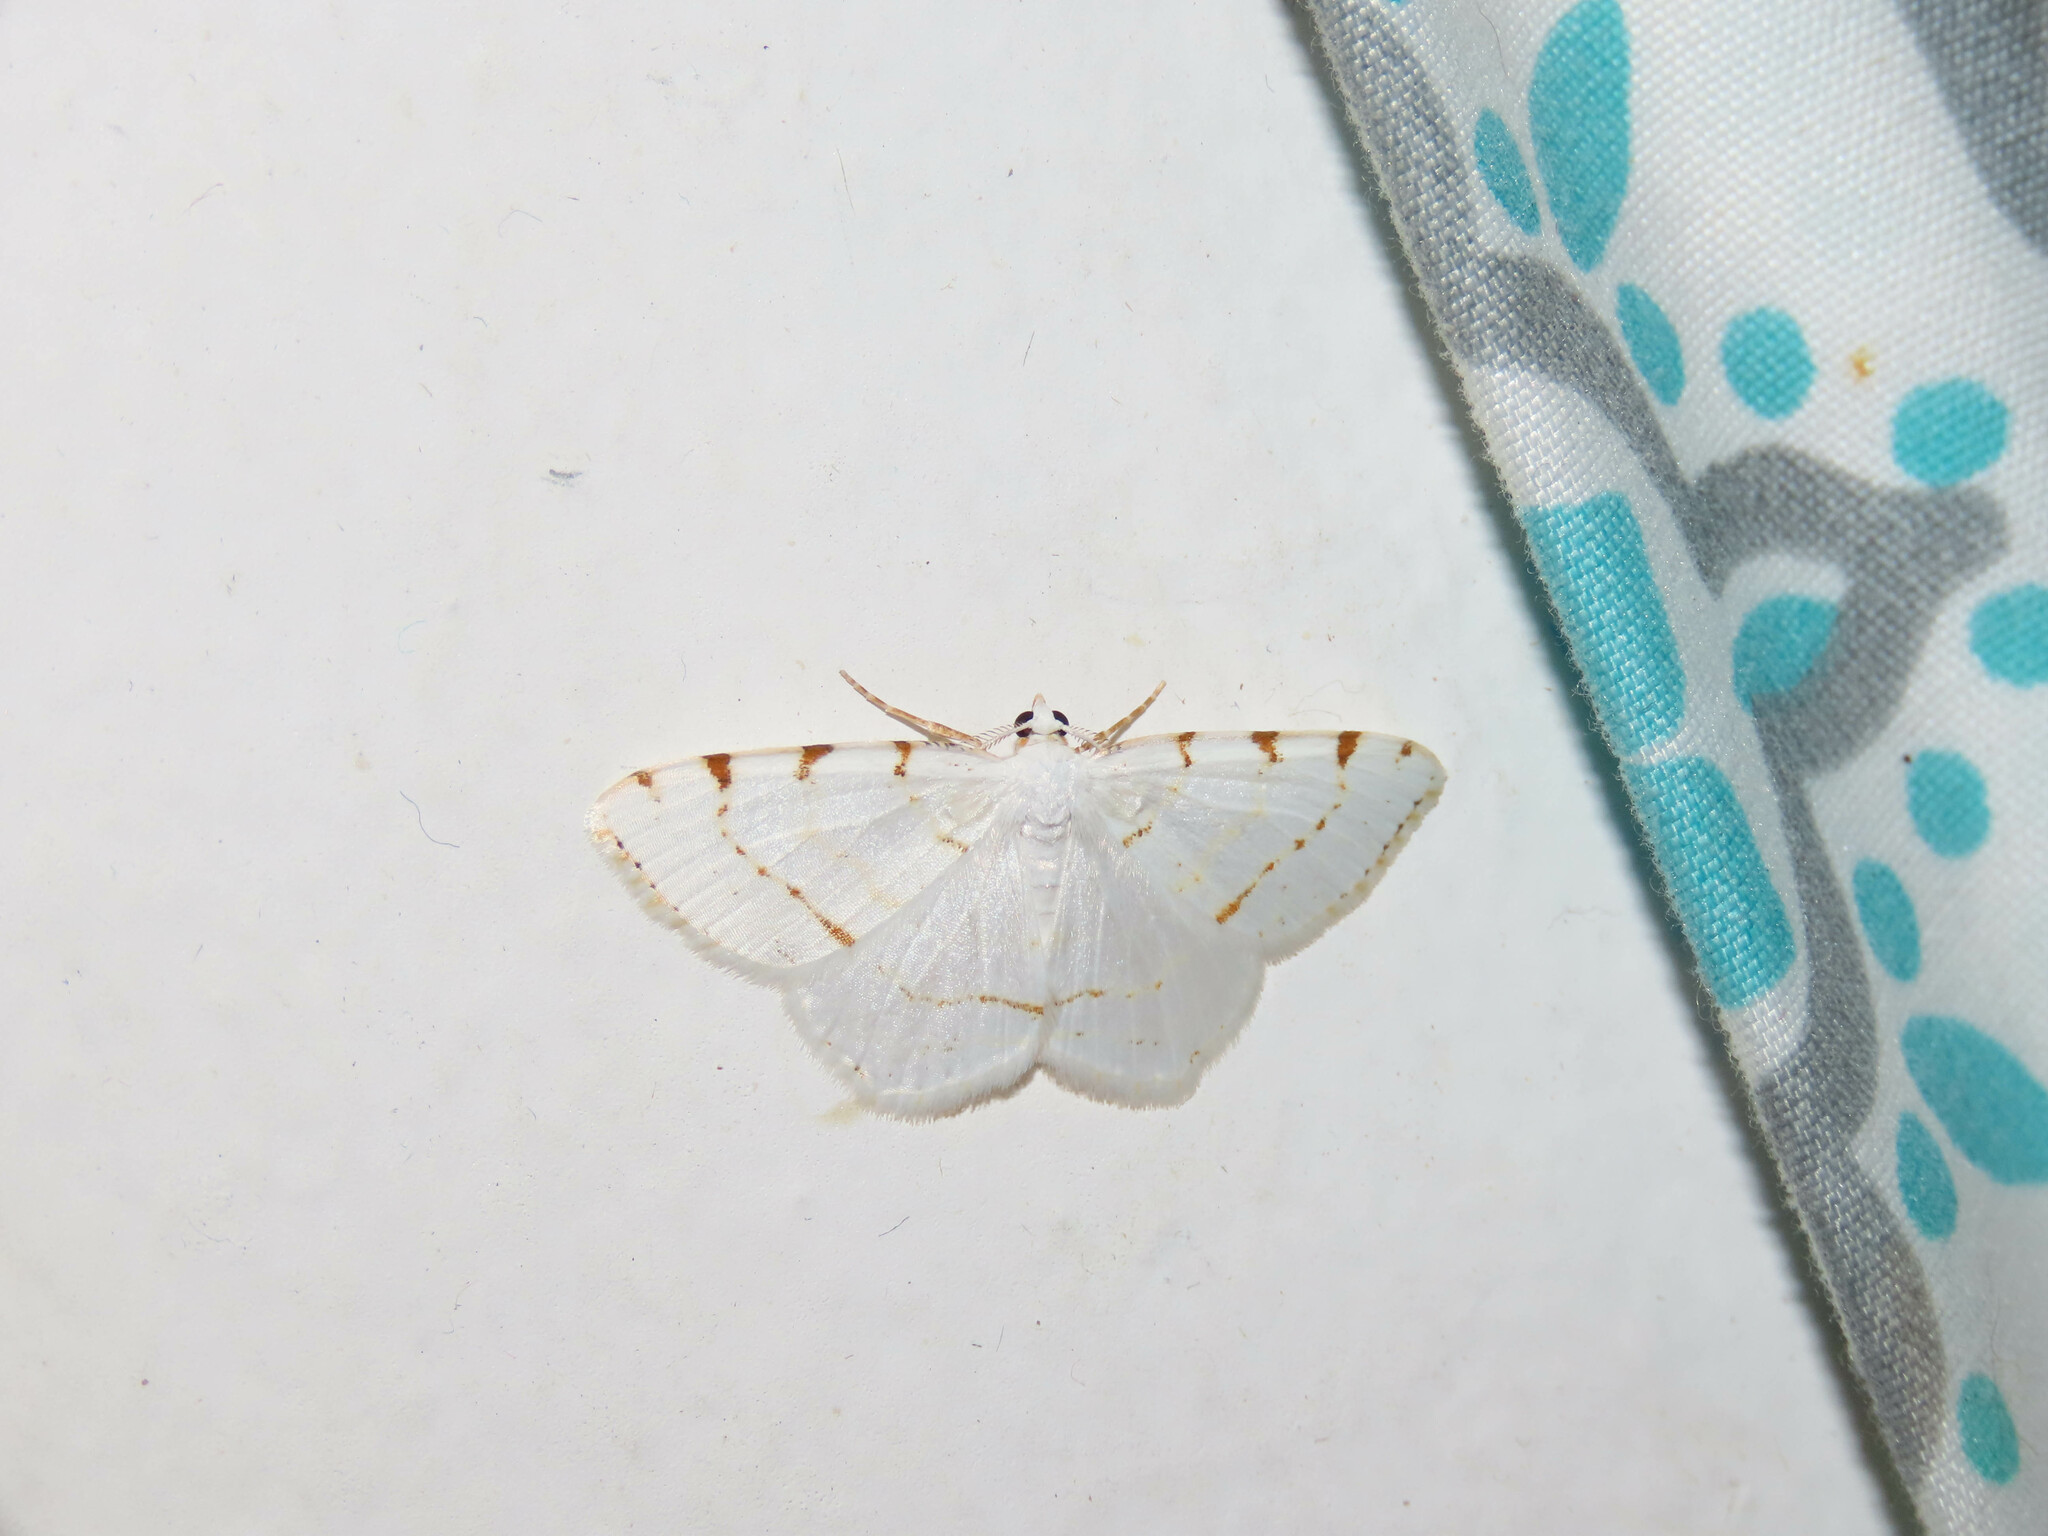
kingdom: Animalia
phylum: Arthropoda
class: Insecta
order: Lepidoptera
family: Geometridae
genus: Macaria
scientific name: Macaria pustularia
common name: Lesser maple spanworm moth
